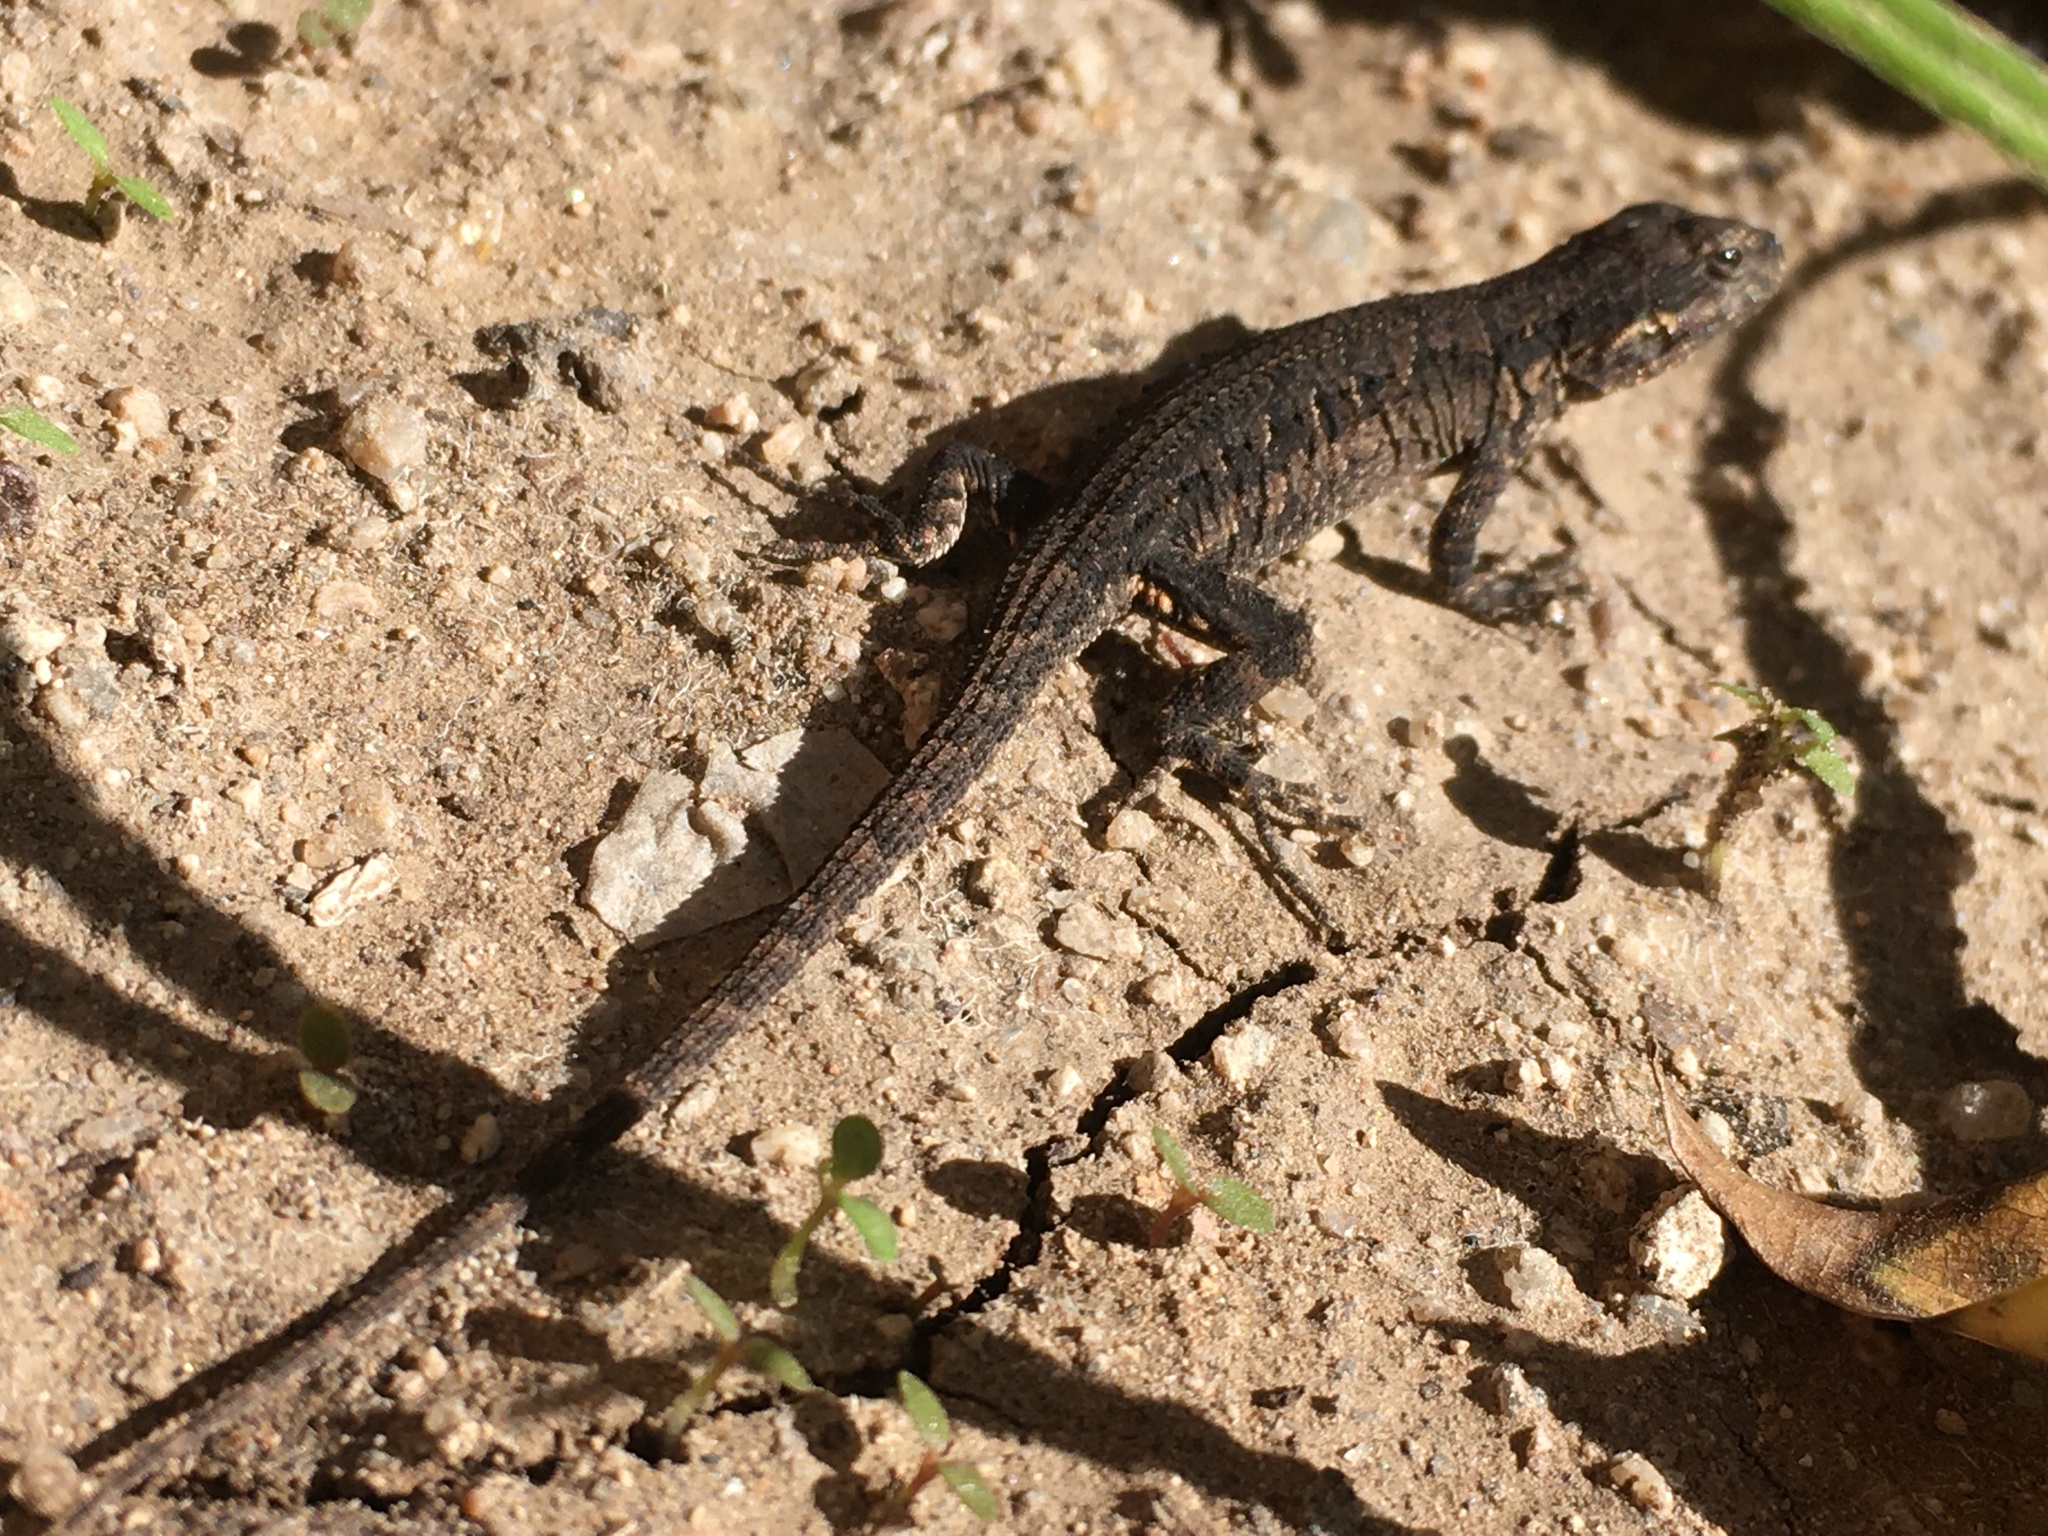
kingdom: Animalia
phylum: Chordata
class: Squamata
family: Phrynosomatidae
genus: Urosaurus
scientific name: Urosaurus ornatus
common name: Ornate tree lizard
